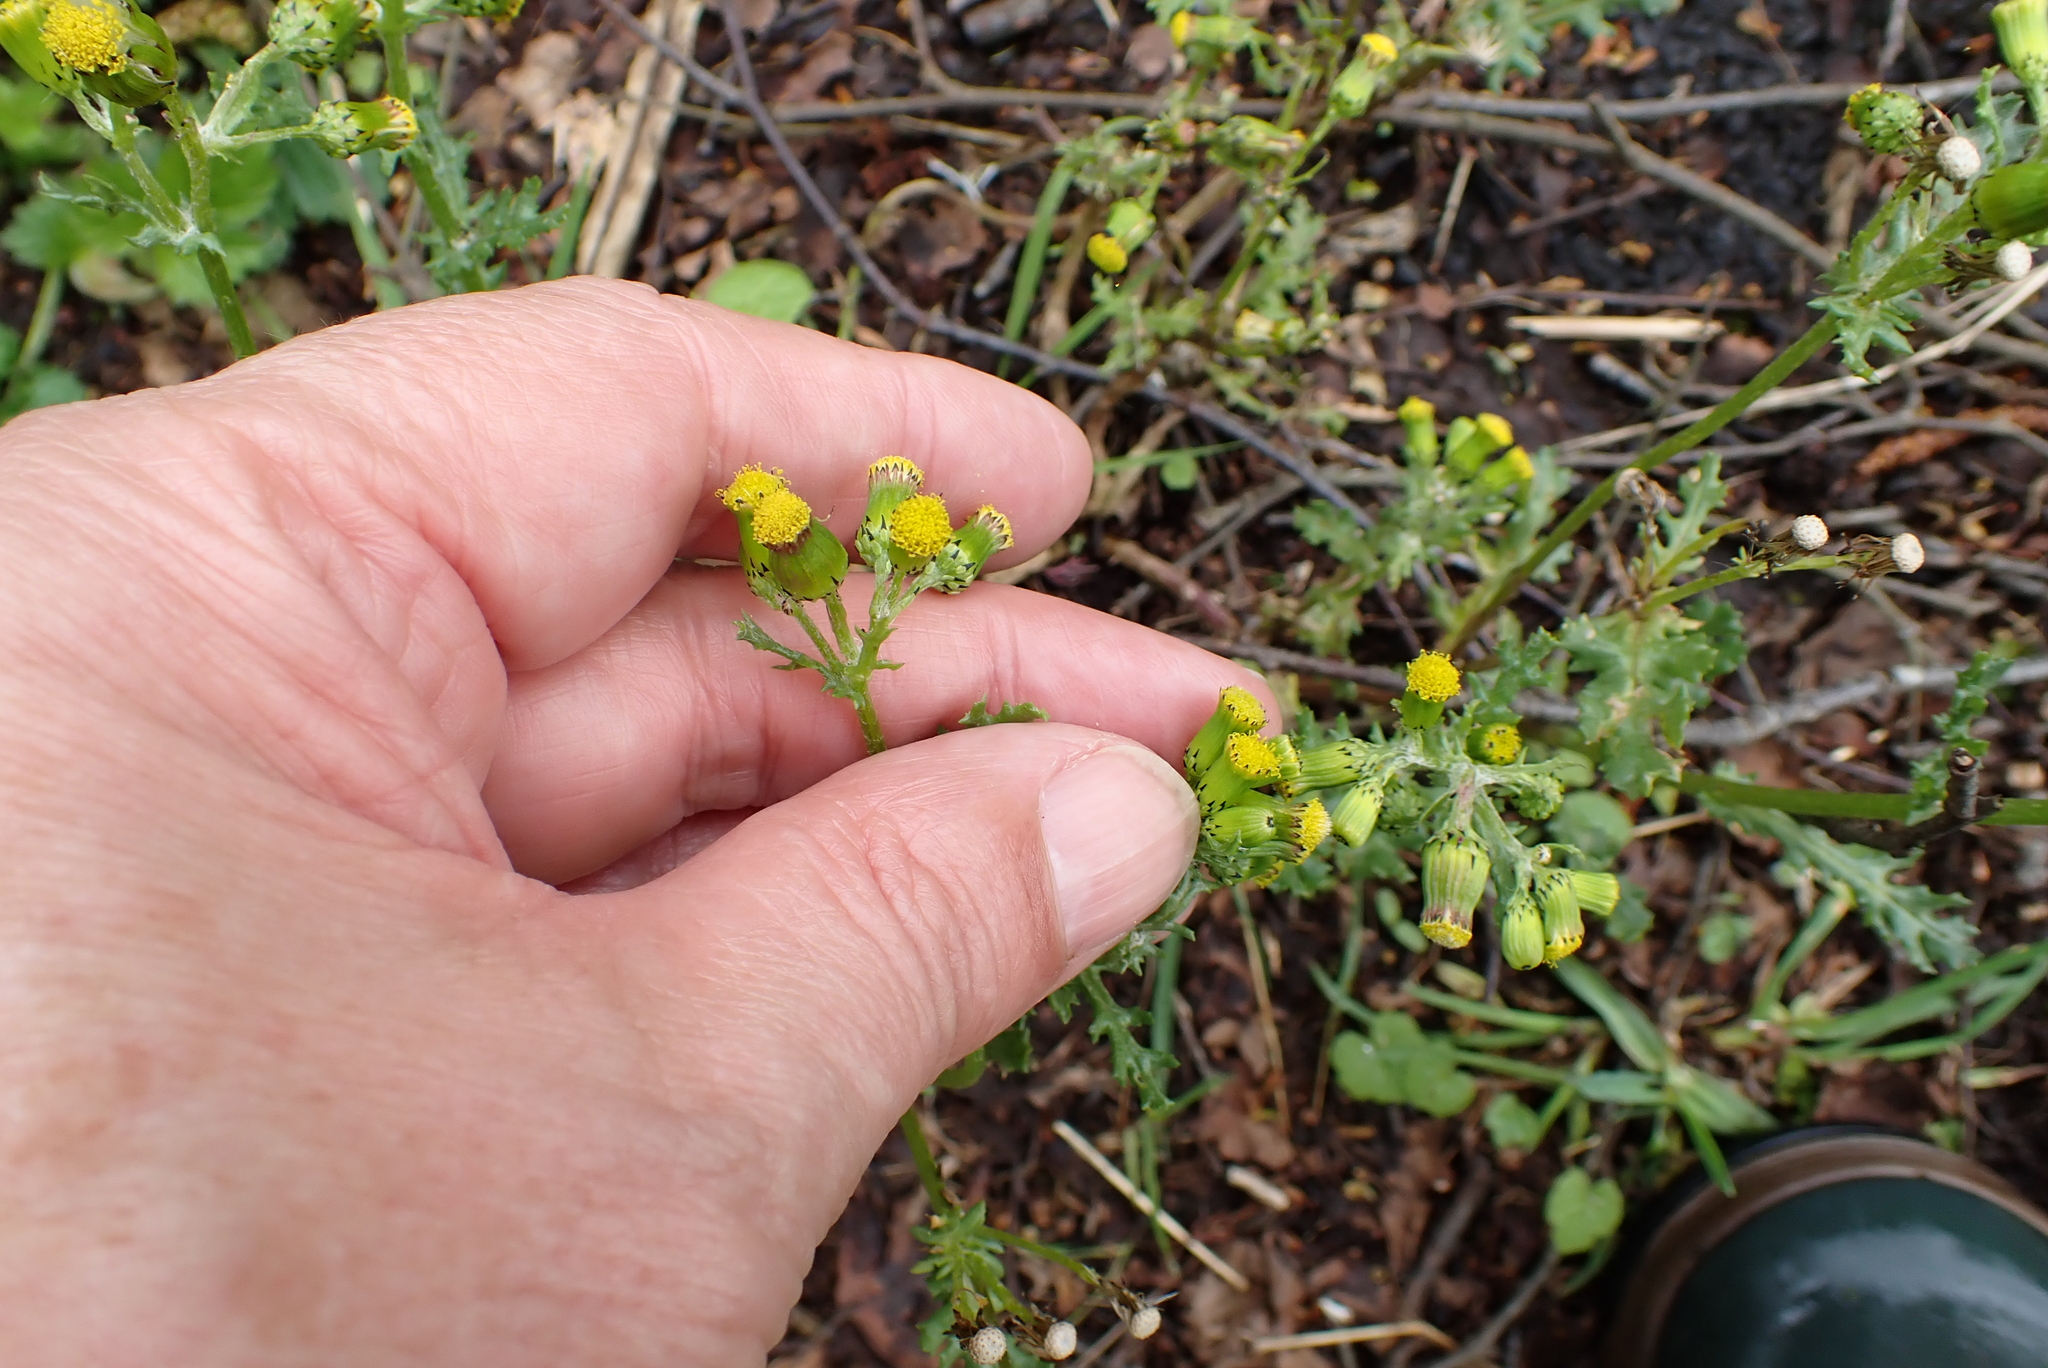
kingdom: Plantae
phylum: Tracheophyta
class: Magnoliopsida
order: Asterales
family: Asteraceae
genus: Senecio
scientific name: Senecio vulgaris
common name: Old-man-in-the-spring
